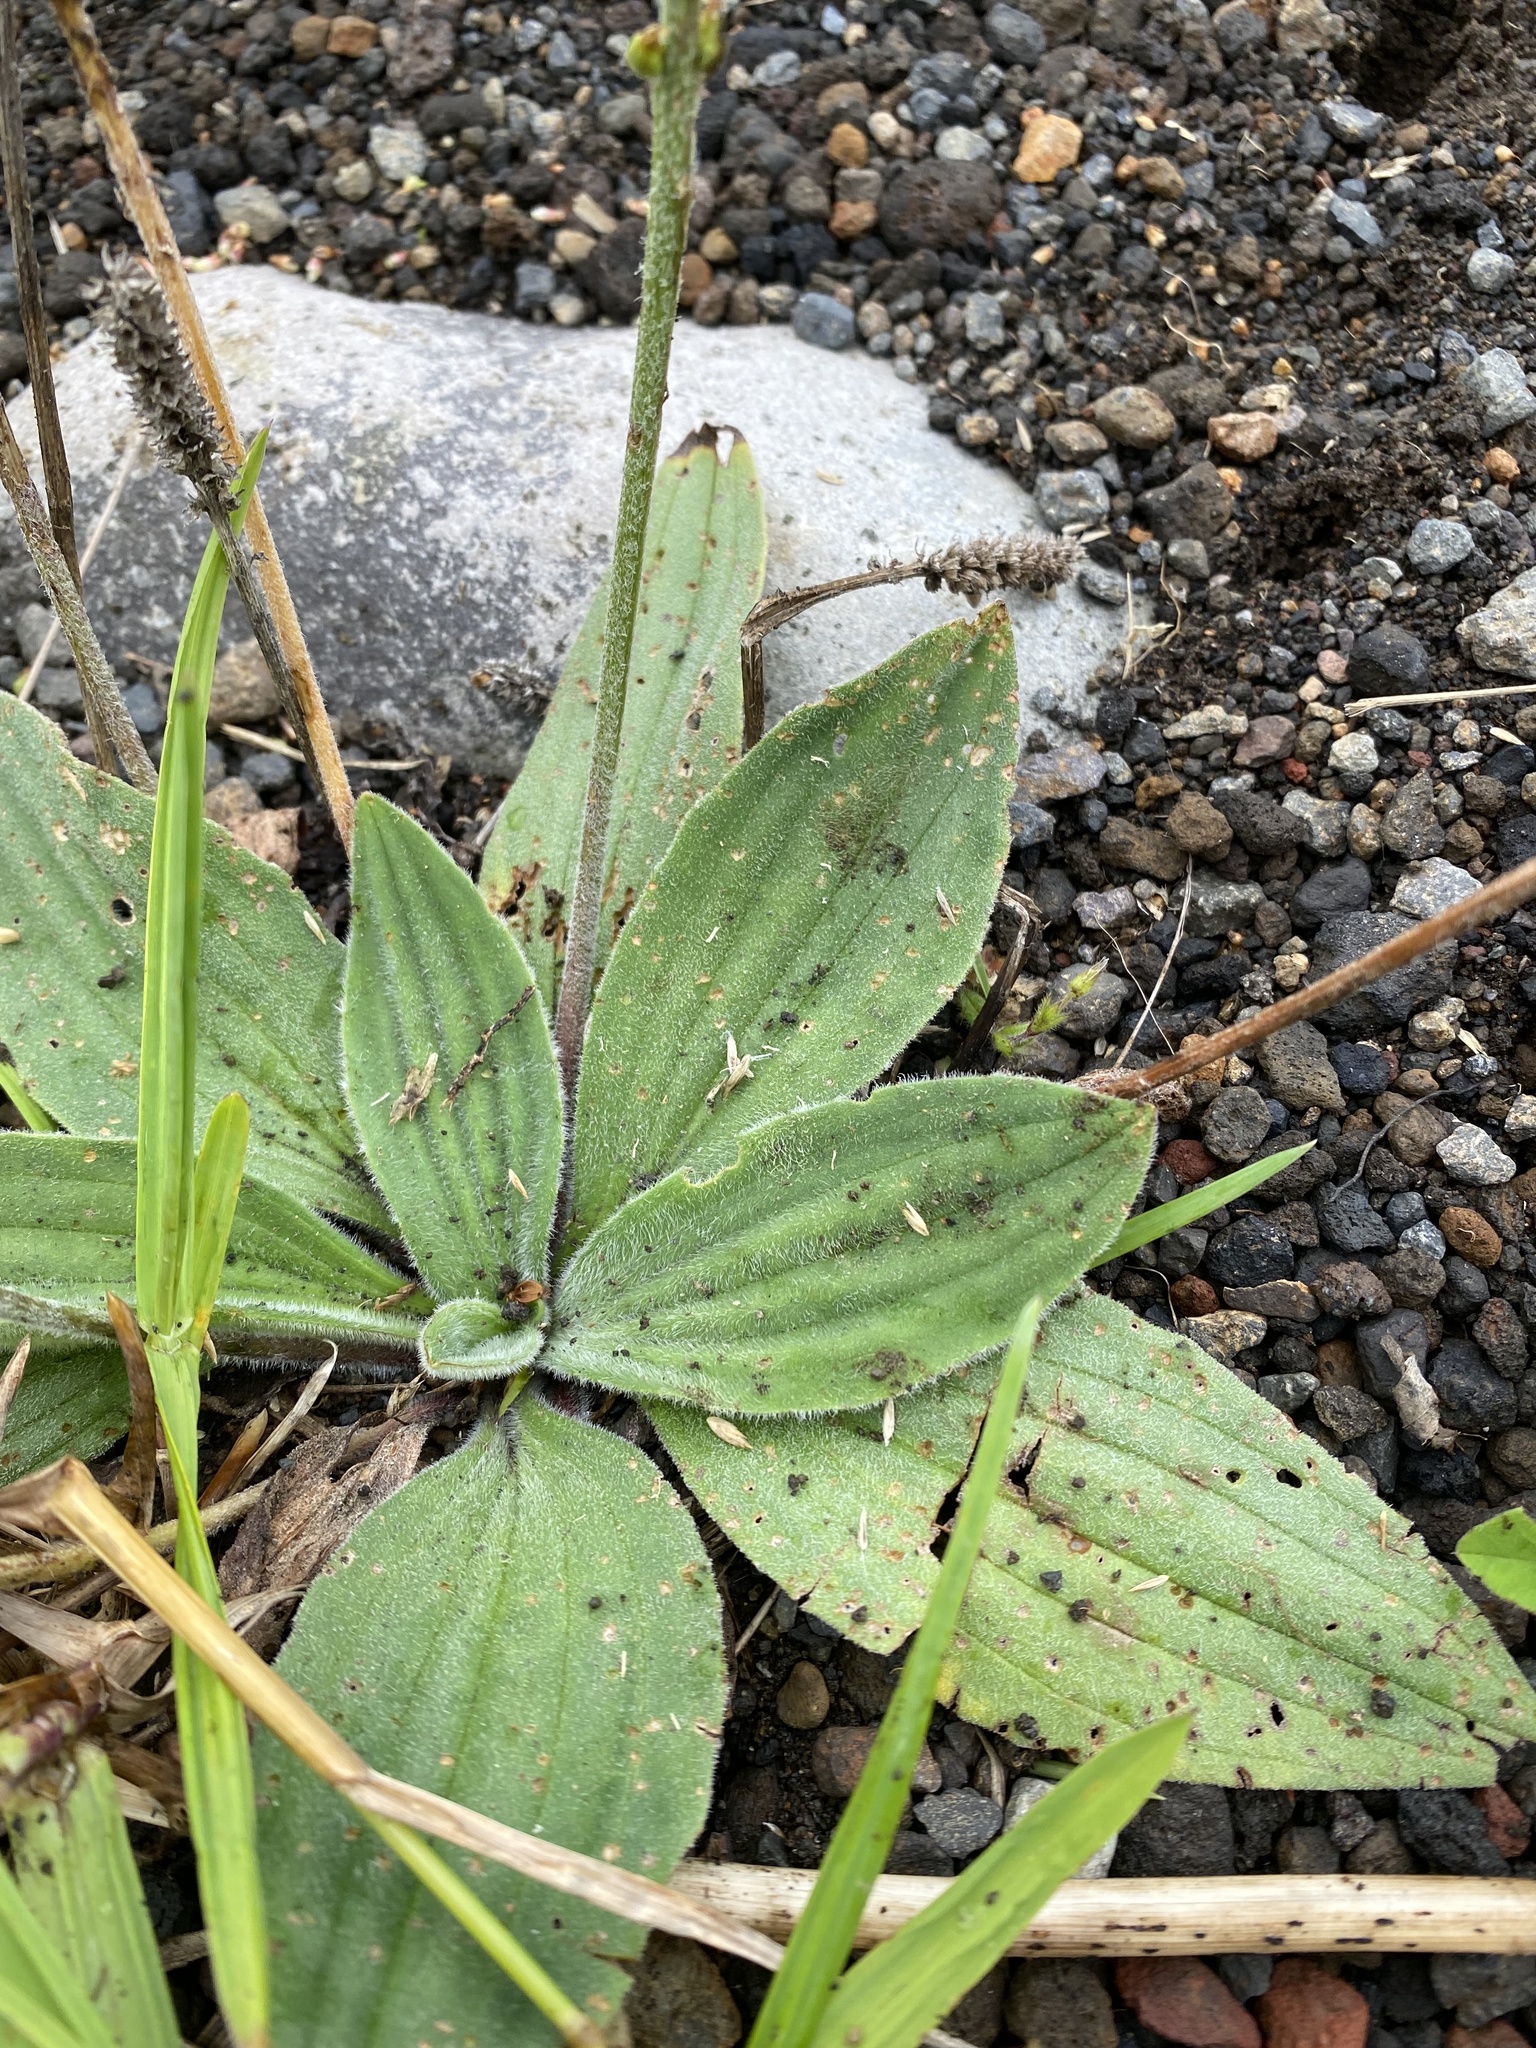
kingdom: Plantae
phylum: Tracheophyta
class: Magnoliopsida
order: Lamiales
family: Plantaginaceae
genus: Plantago
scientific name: Plantago camtschatica
